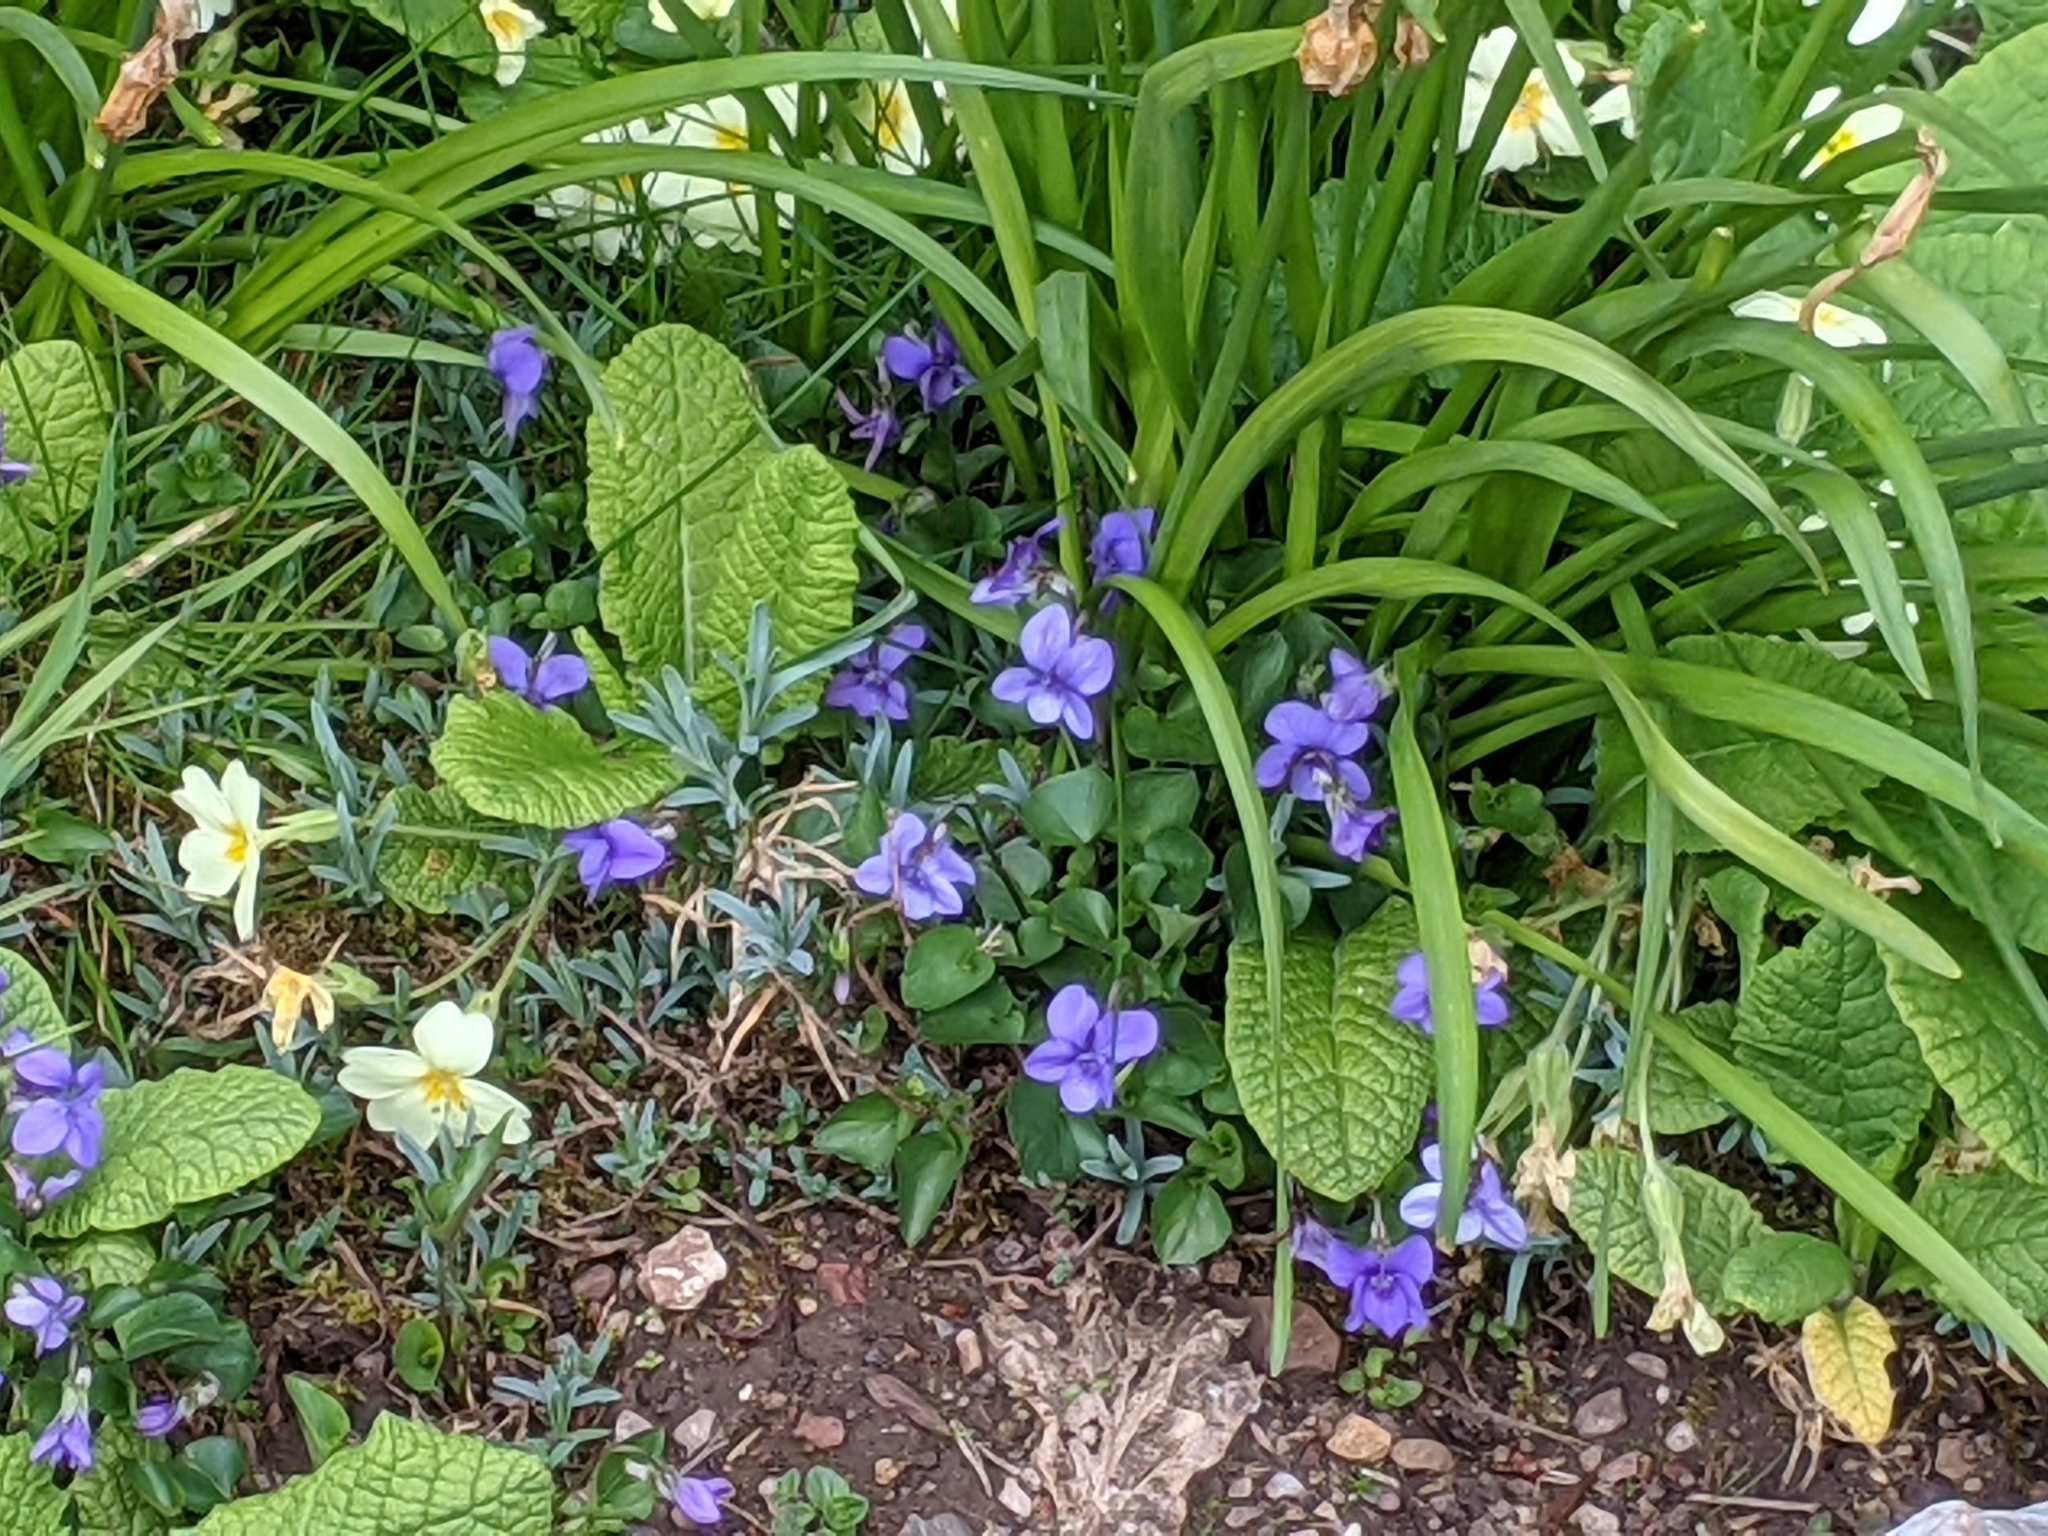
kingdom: Plantae
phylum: Tracheophyta
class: Magnoliopsida
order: Malpighiales
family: Violaceae
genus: Viola
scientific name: Viola riviniana
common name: Common dog-violet
